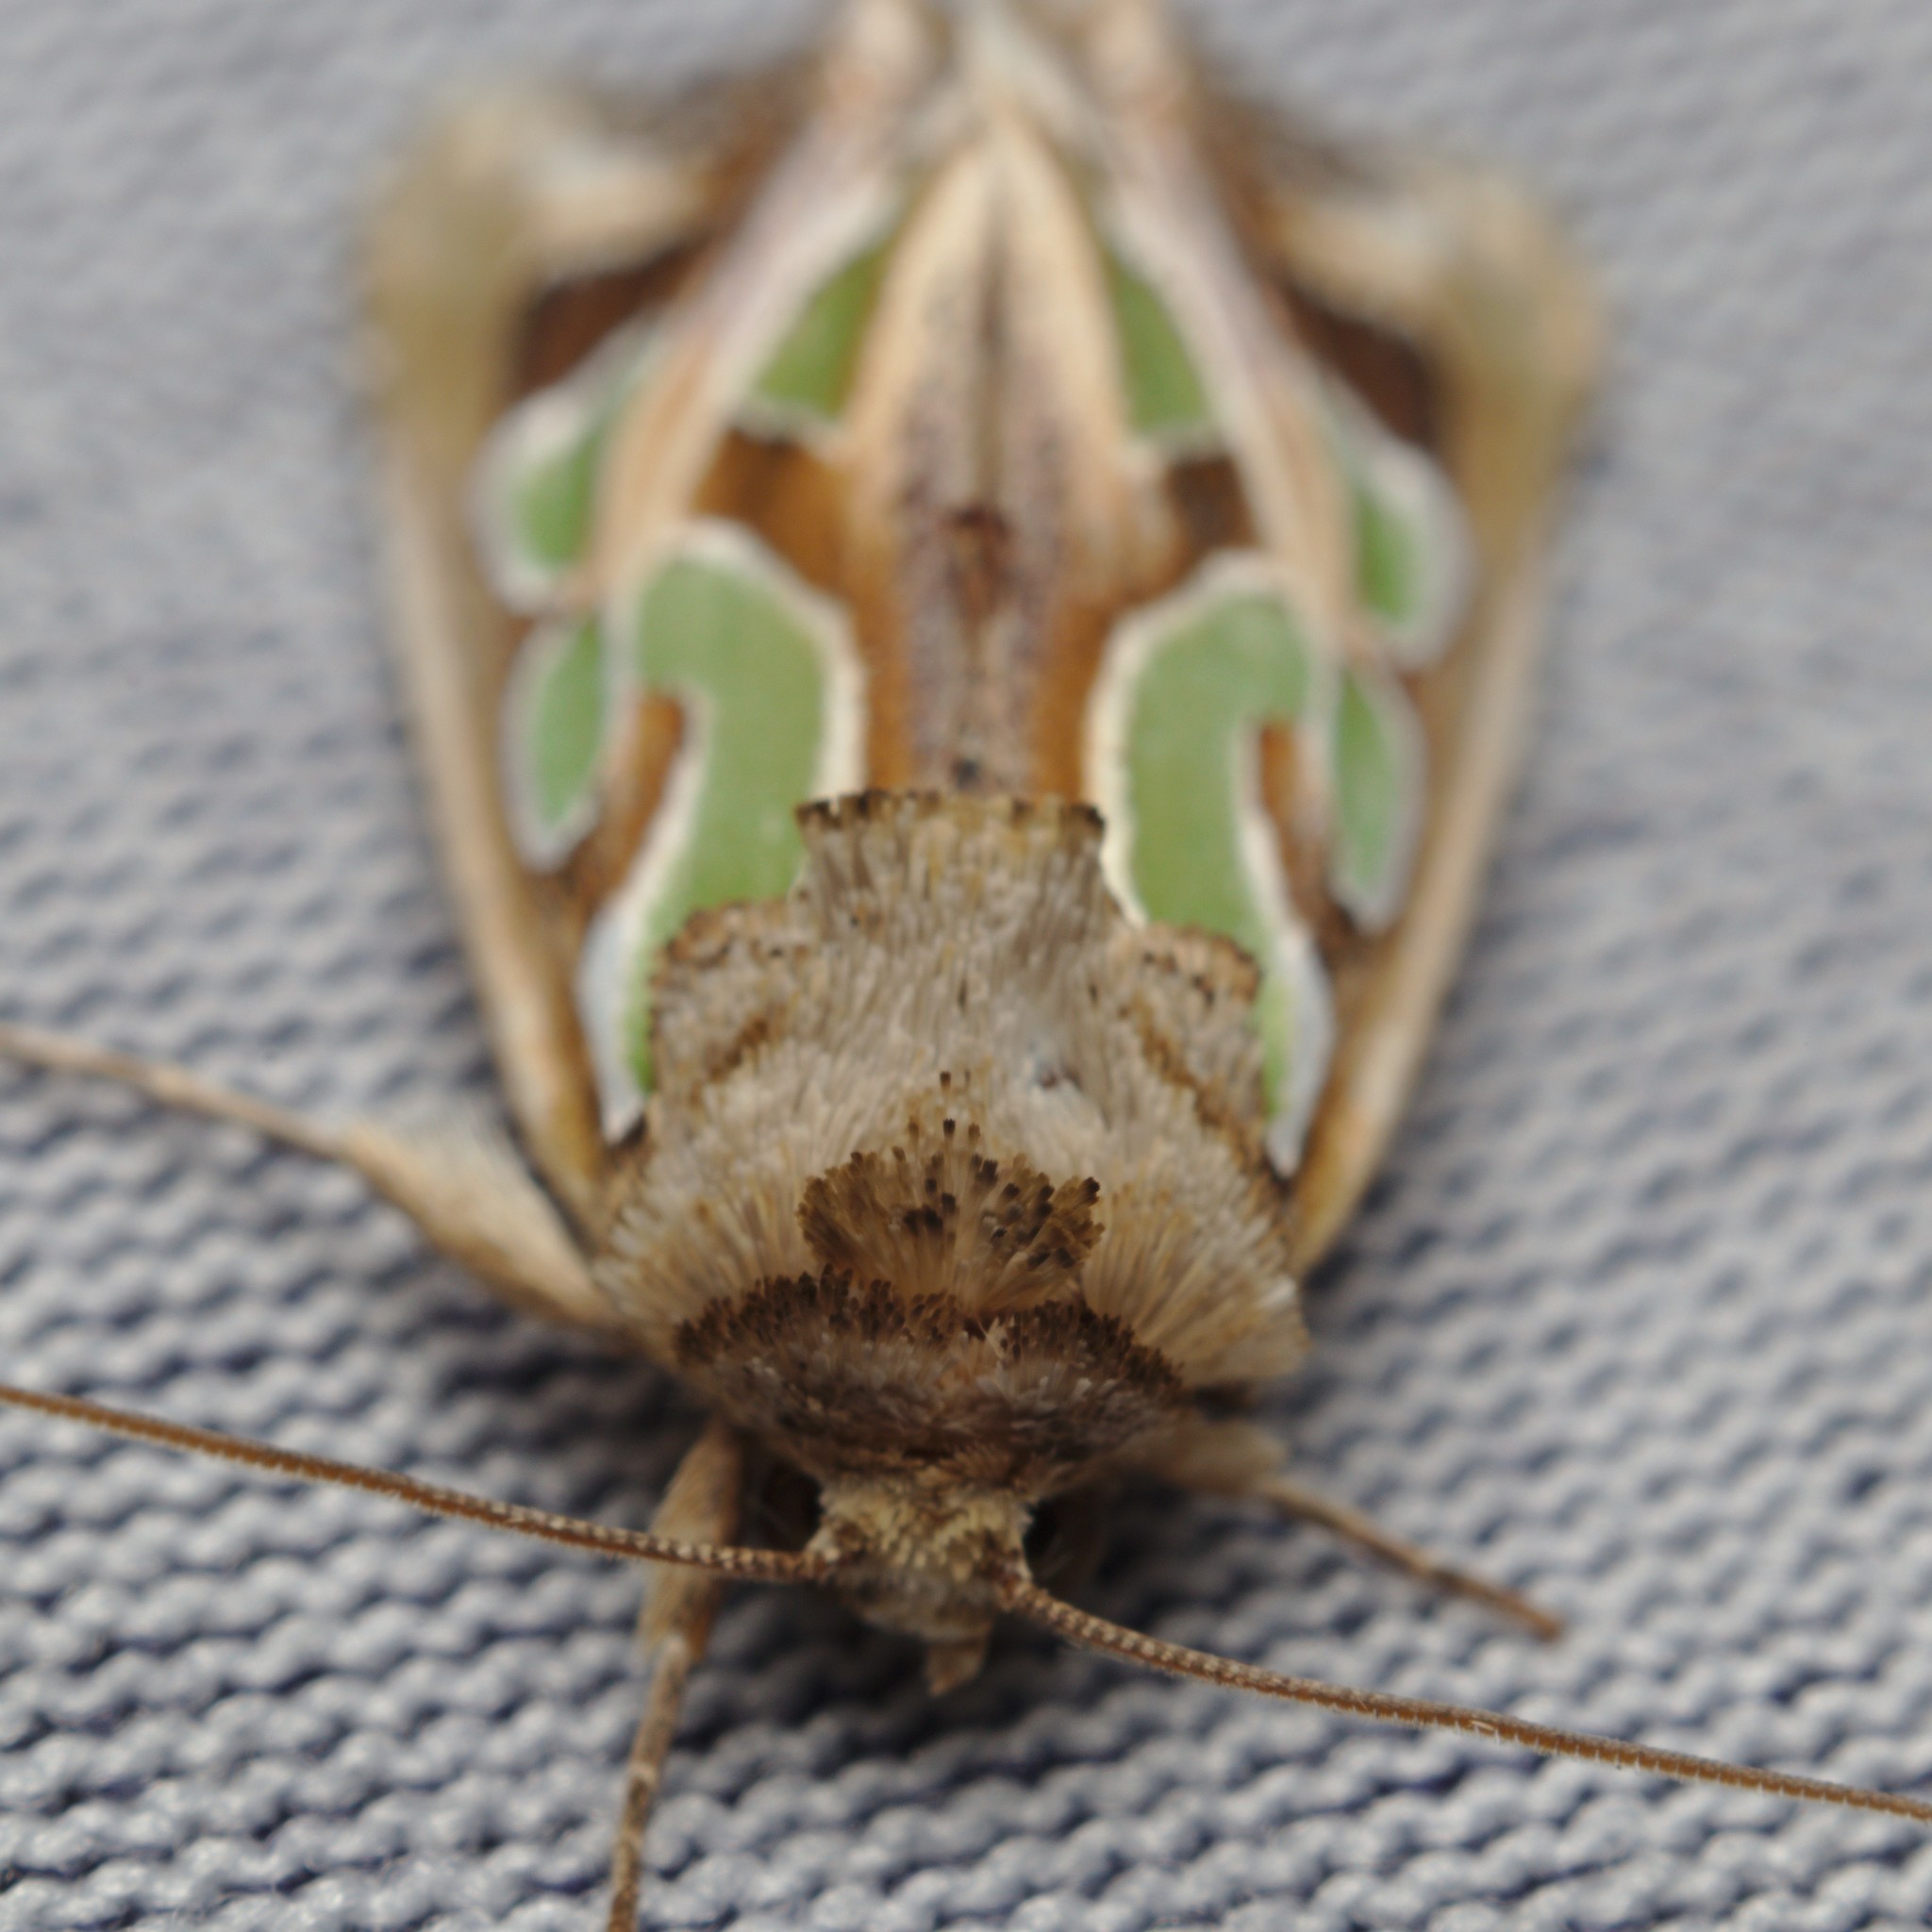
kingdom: Animalia
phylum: Arthropoda
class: Insecta
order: Lepidoptera
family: Noctuidae
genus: Cosmodes
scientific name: Cosmodes elegans
